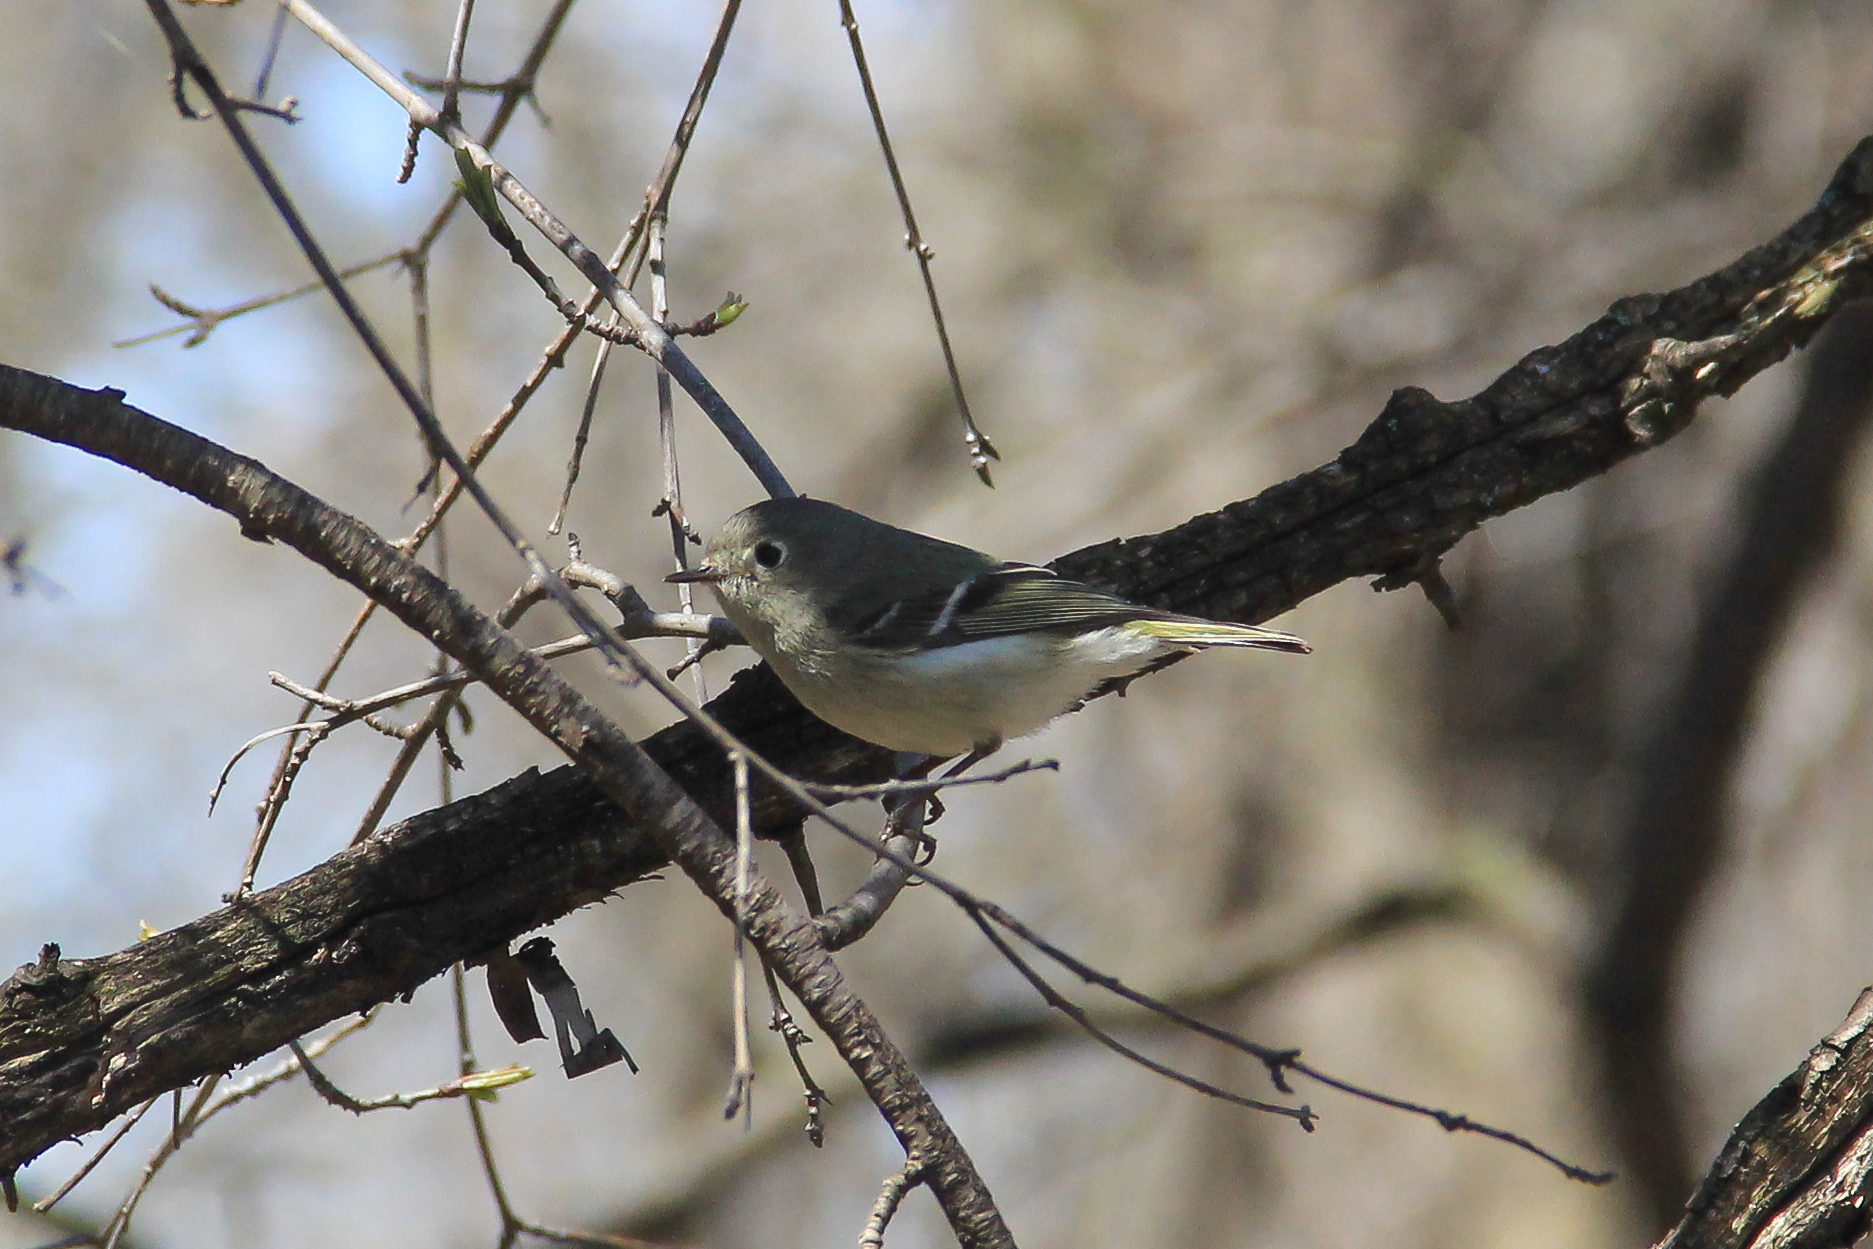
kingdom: Animalia
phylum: Chordata
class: Aves
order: Passeriformes
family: Regulidae
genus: Regulus
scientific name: Regulus calendula
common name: Ruby-crowned kinglet
